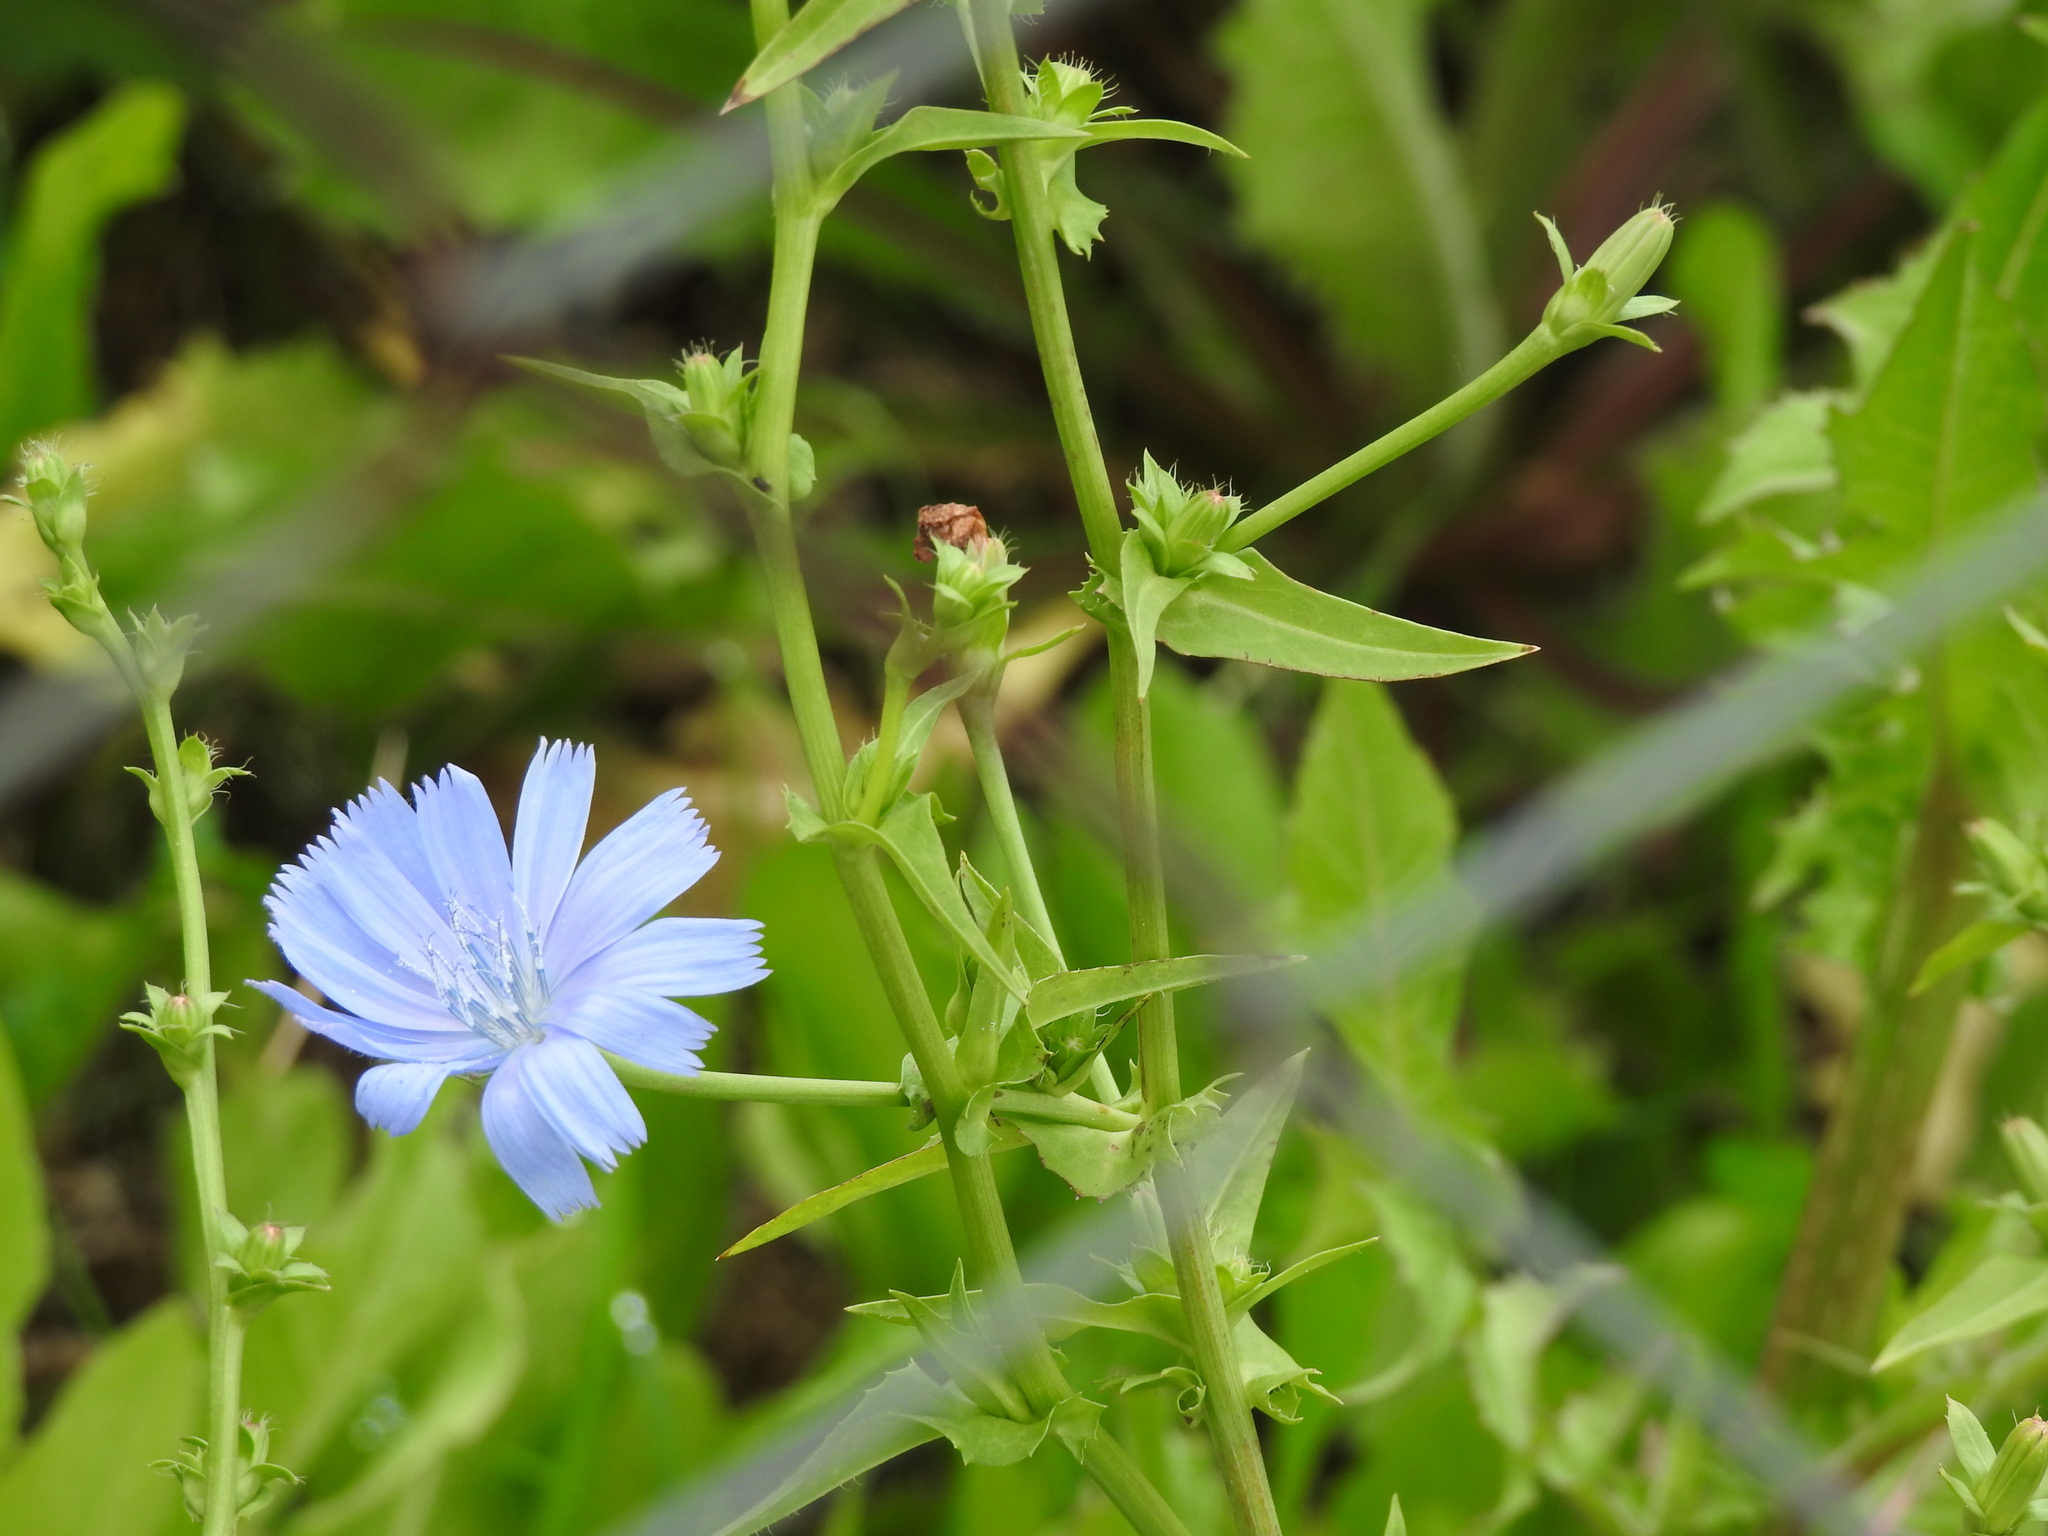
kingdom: Plantae
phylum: Tracheophyta
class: Magnoliopsida
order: Asterales
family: Asteraceae
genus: Cichorium
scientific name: Cichorium intybus
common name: Chicory
